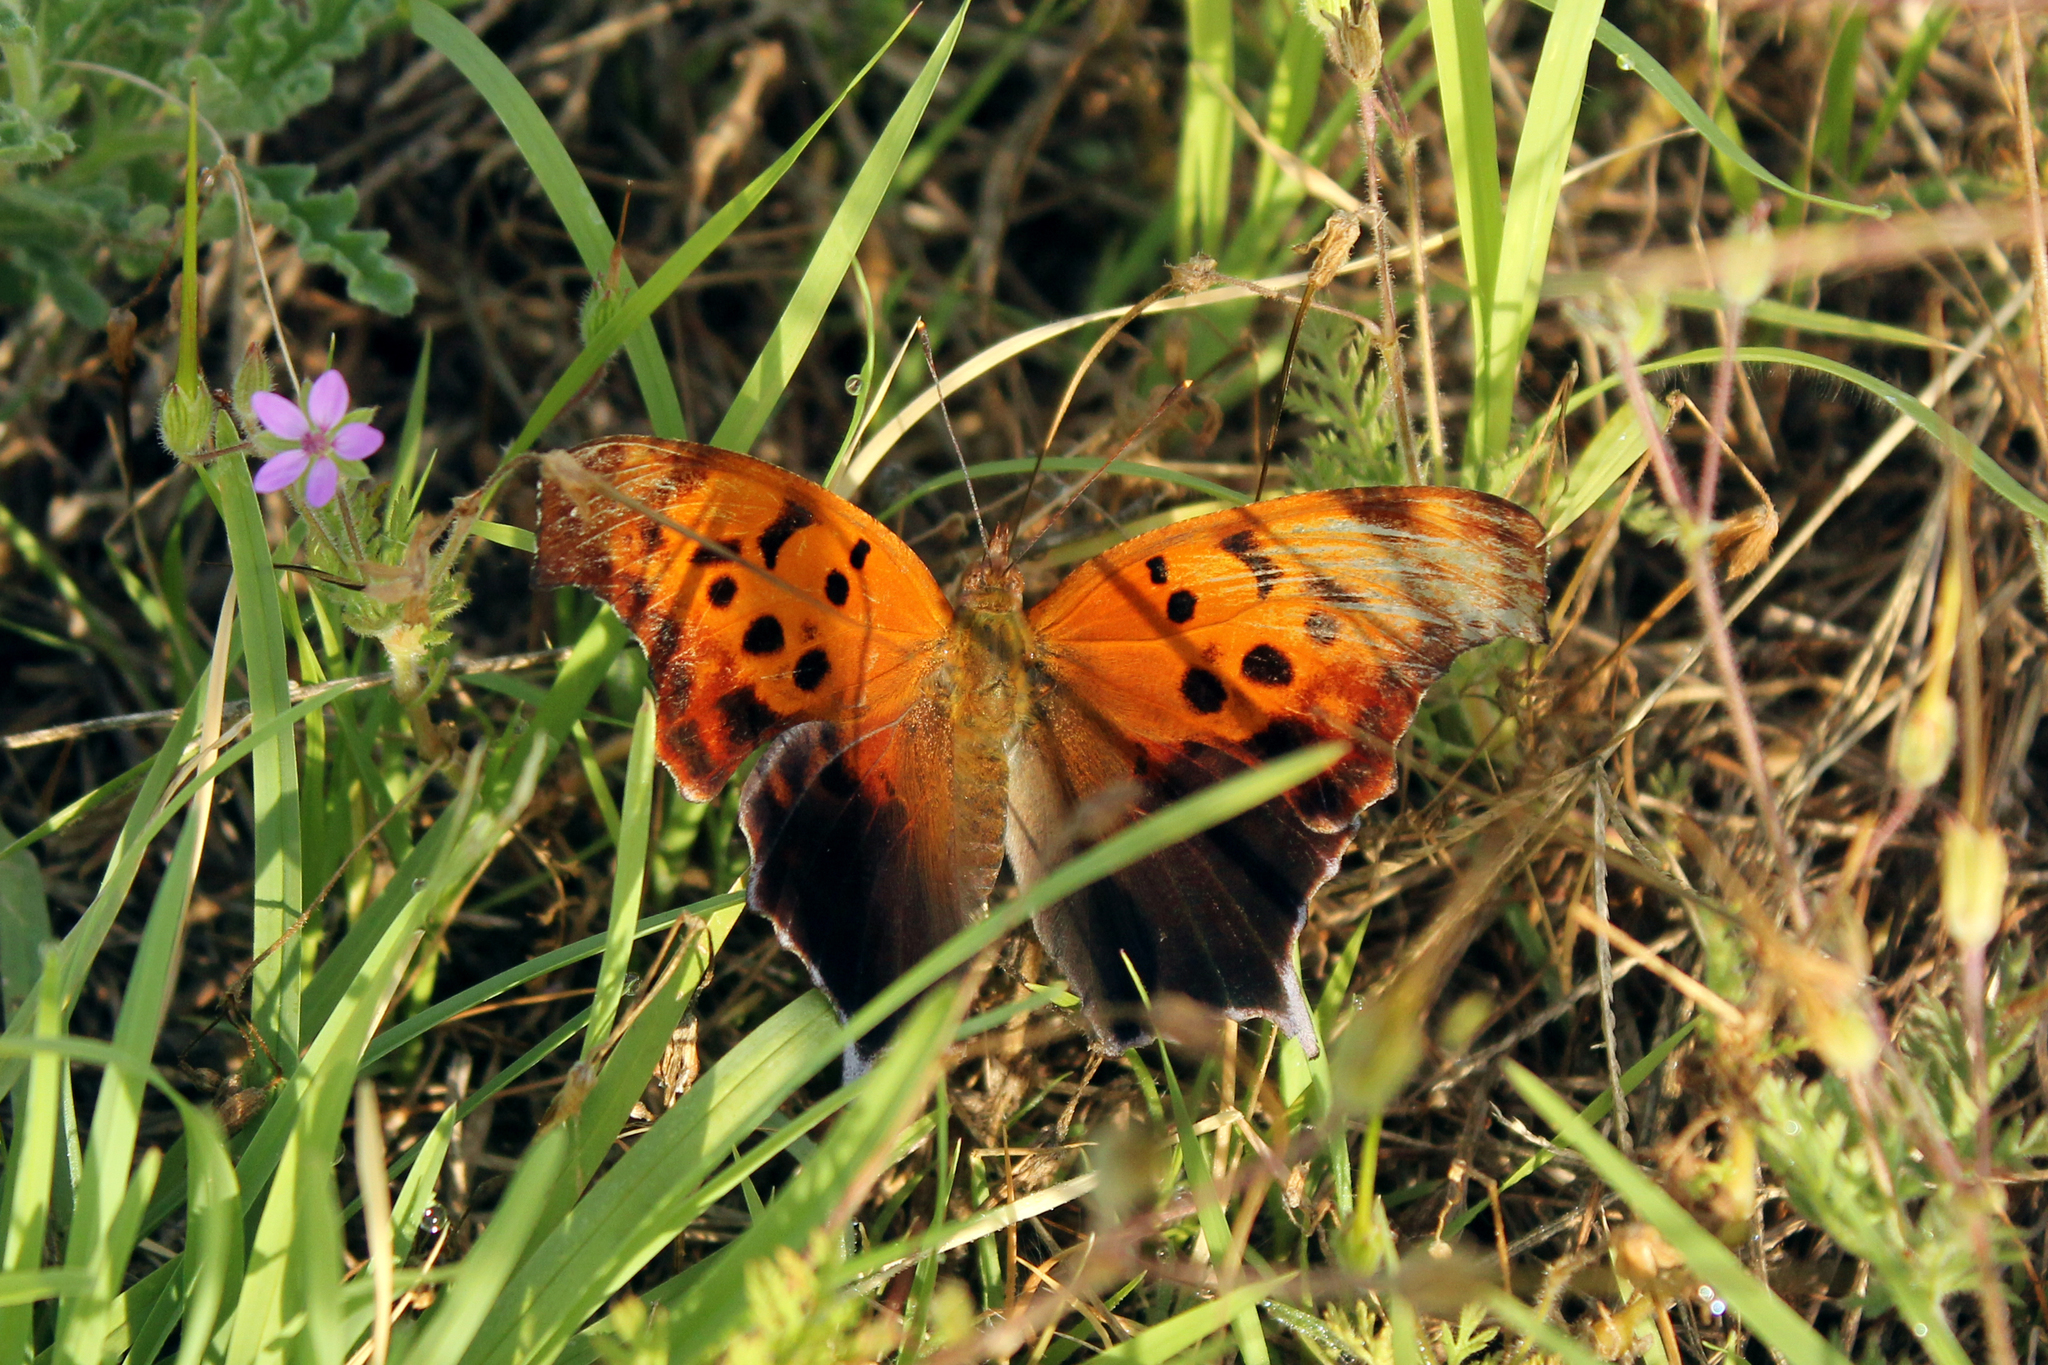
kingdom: Animalia
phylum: Arthropoda
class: Insecta
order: Lepidoptera
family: Nymphalidae
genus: Polygonia
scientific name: Polygonia interrogationis
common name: Question mark
